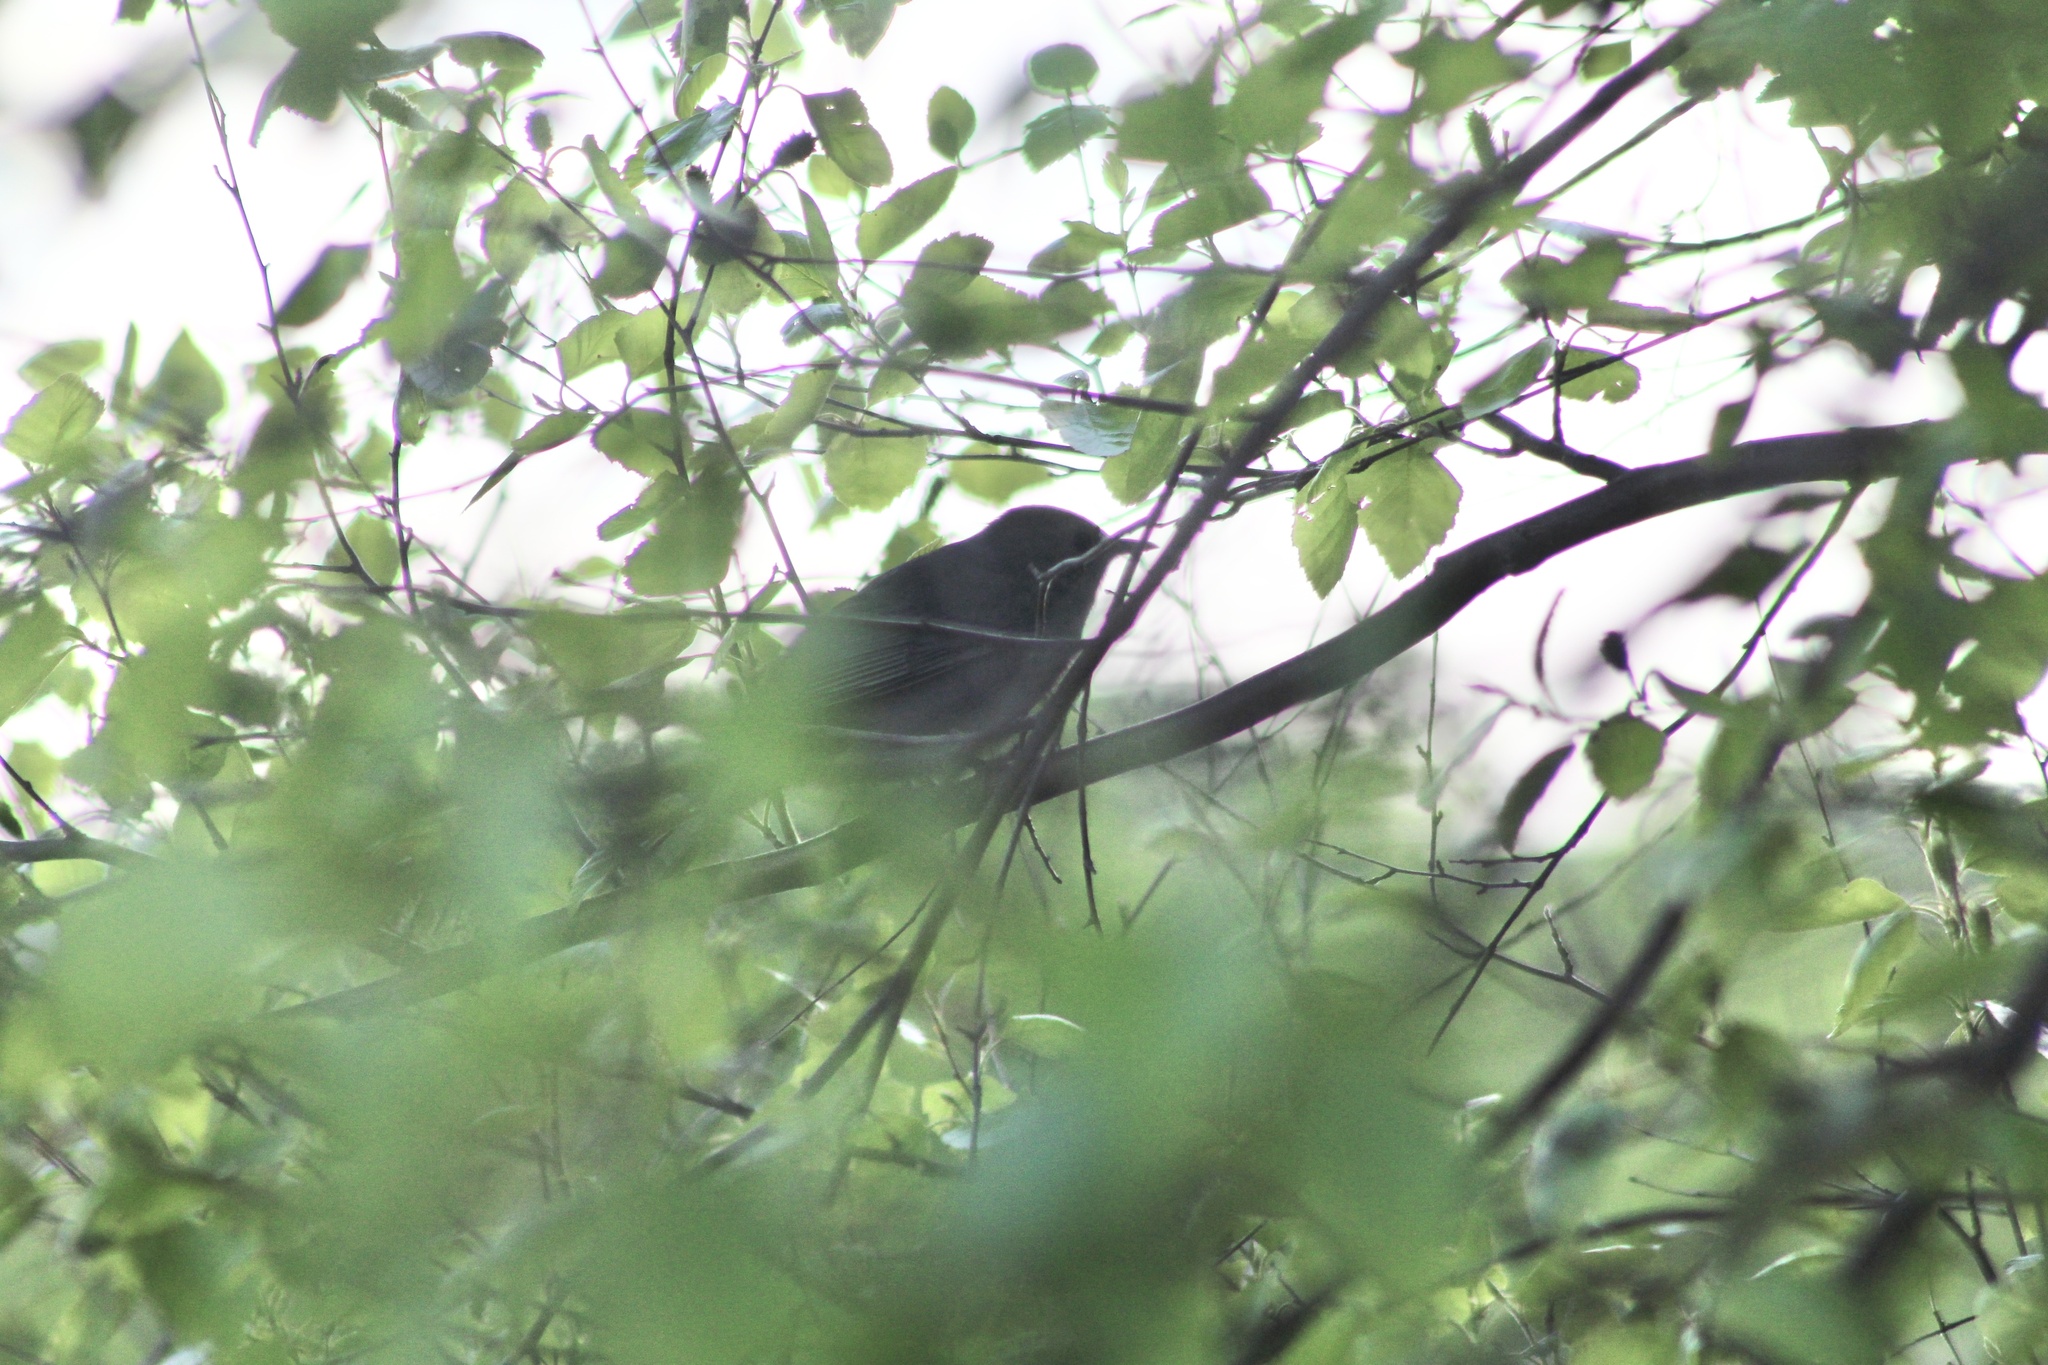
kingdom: Animalia
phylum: Chordata
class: Aves
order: Passeriformes
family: Mimidae
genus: Dumetella
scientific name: Dumetella carolinensis
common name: Gray catbird
